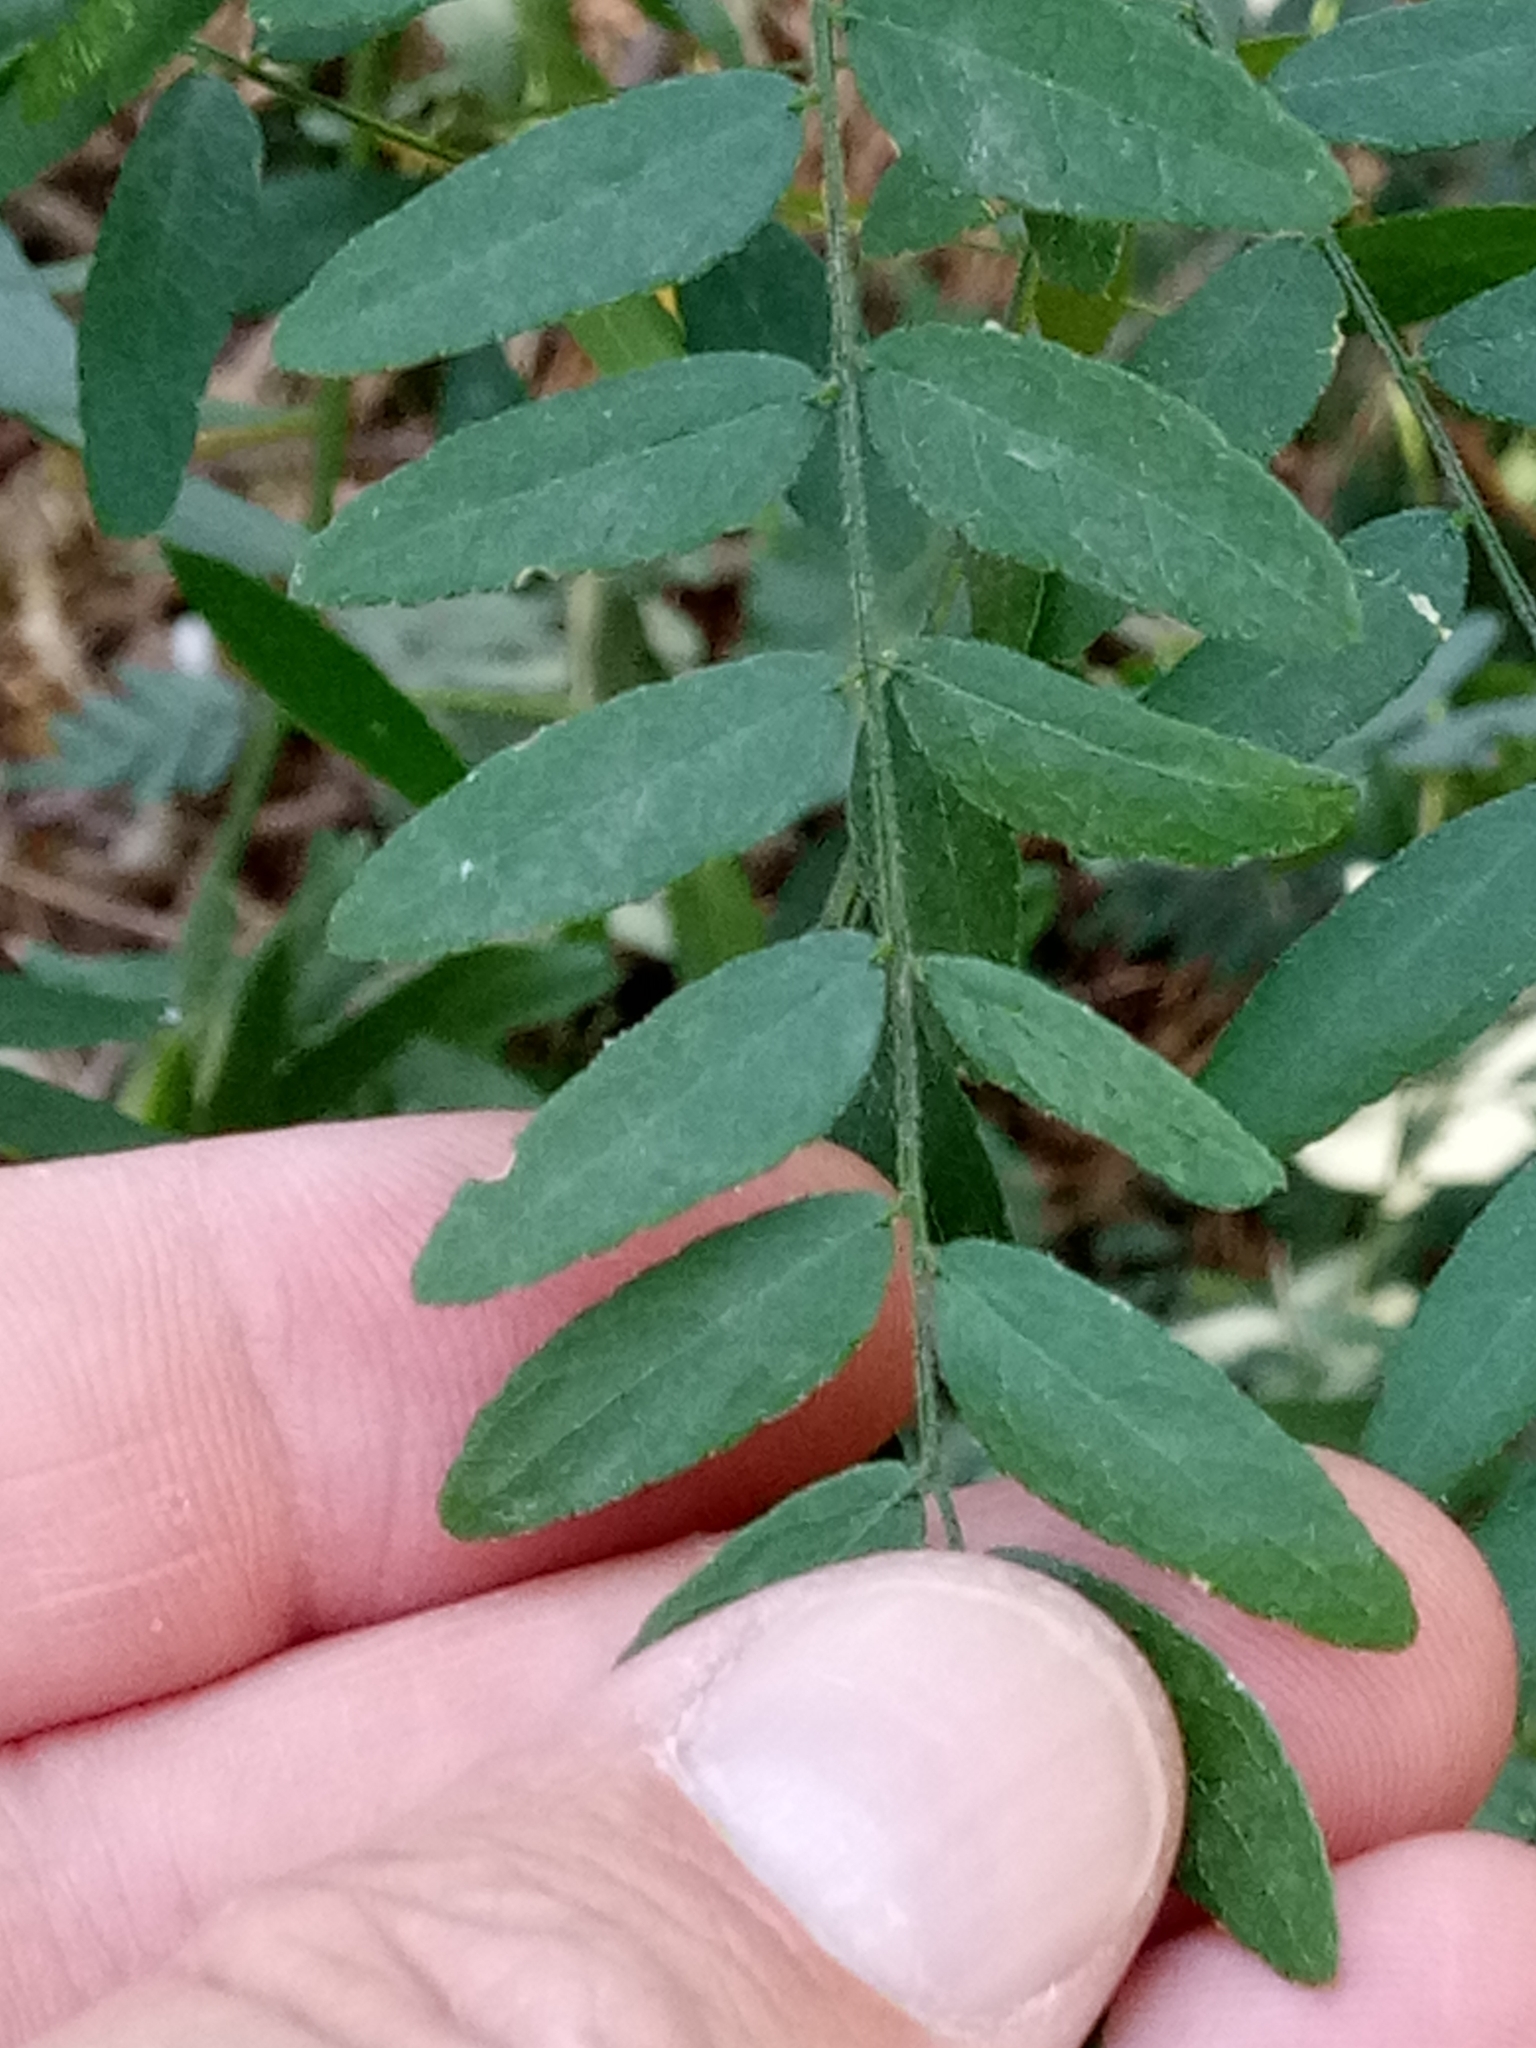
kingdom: Plantae
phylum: Tracheophyta
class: Magnoliopsida
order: Fabales
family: Fabaceae
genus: Gleditsia
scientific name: Gleditsia triacanthos
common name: Common honeylocust
